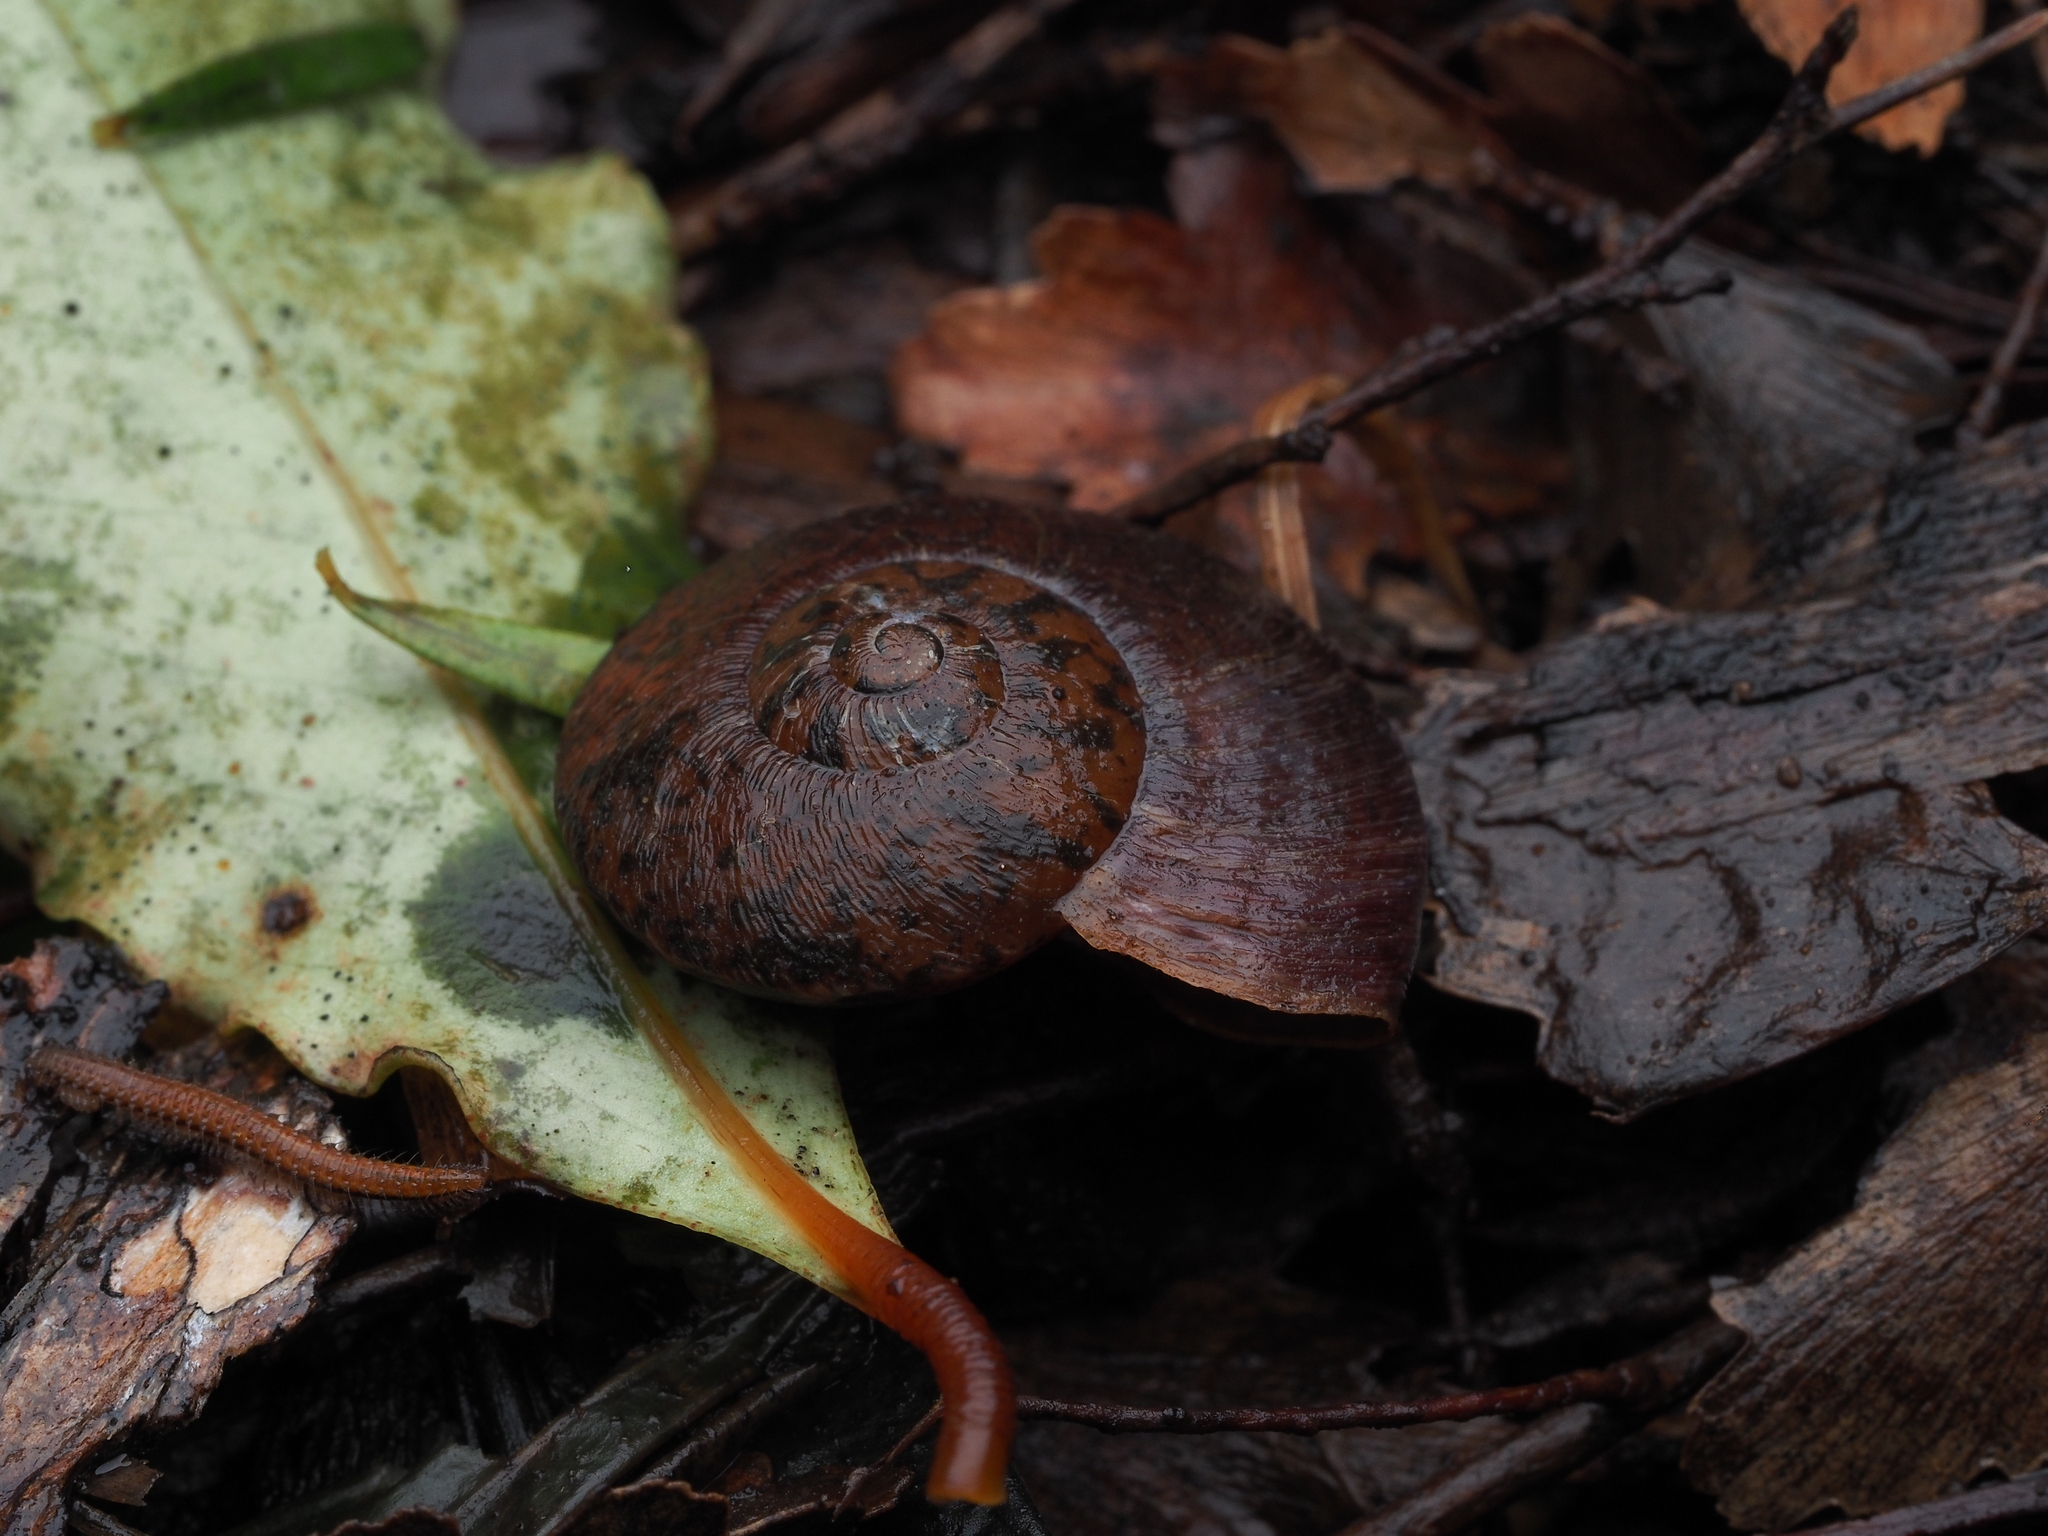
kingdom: Animalia
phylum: Mollusca
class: Gastropoda
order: Stylommatophora
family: Rhytididae
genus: Amborhytida
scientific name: Amborhytida dunniae
